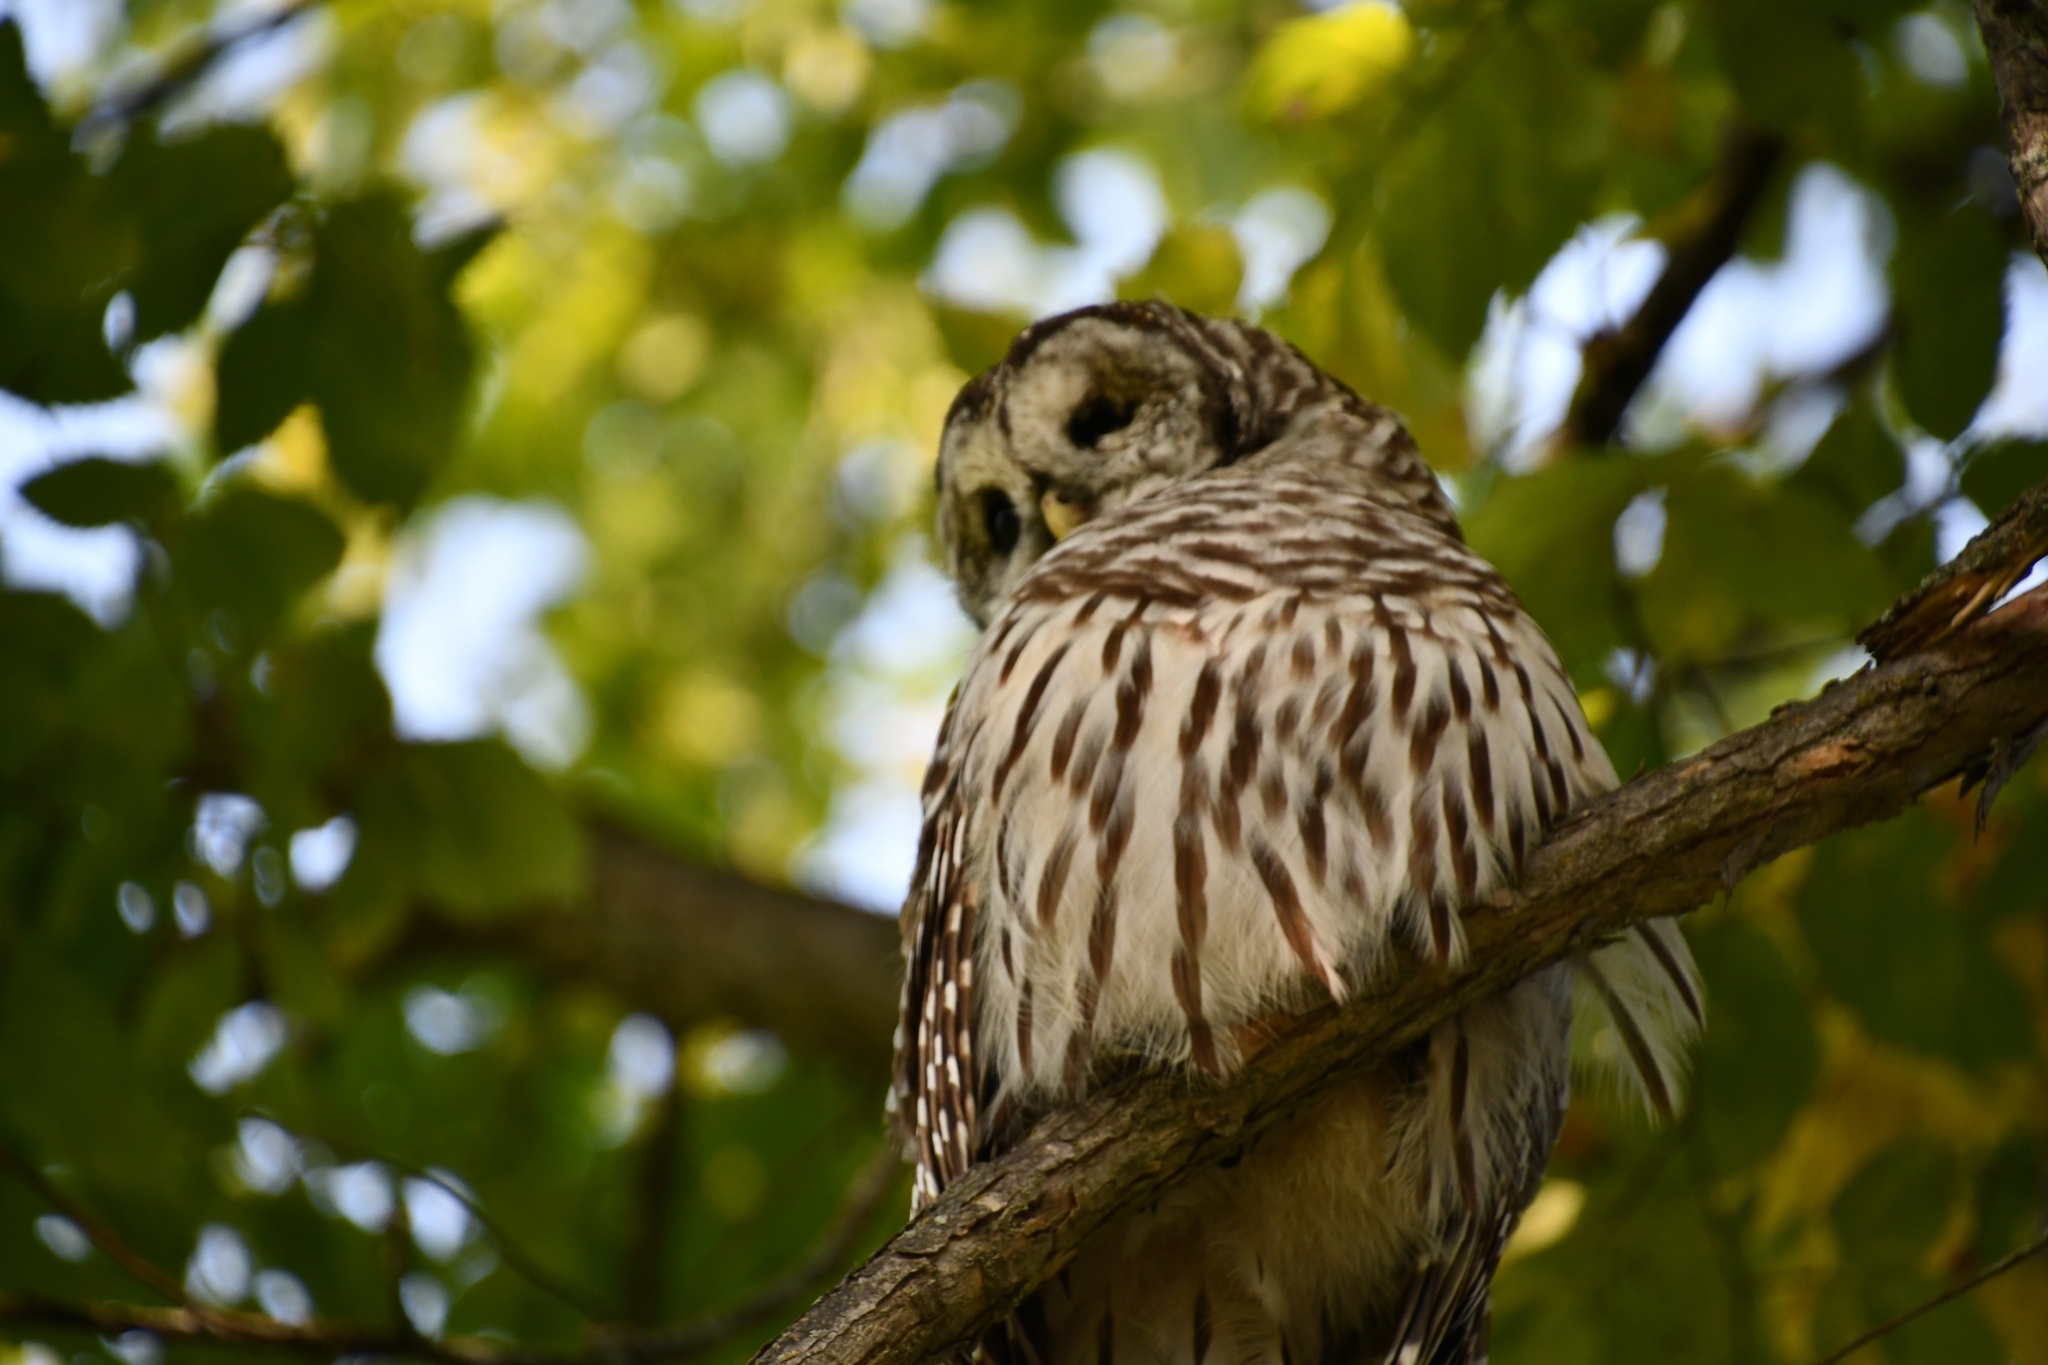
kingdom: Animalia
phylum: Chordata
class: Aves
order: Strigiformes
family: Strigidae
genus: Strix
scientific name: Strix varia
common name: Barred owl
